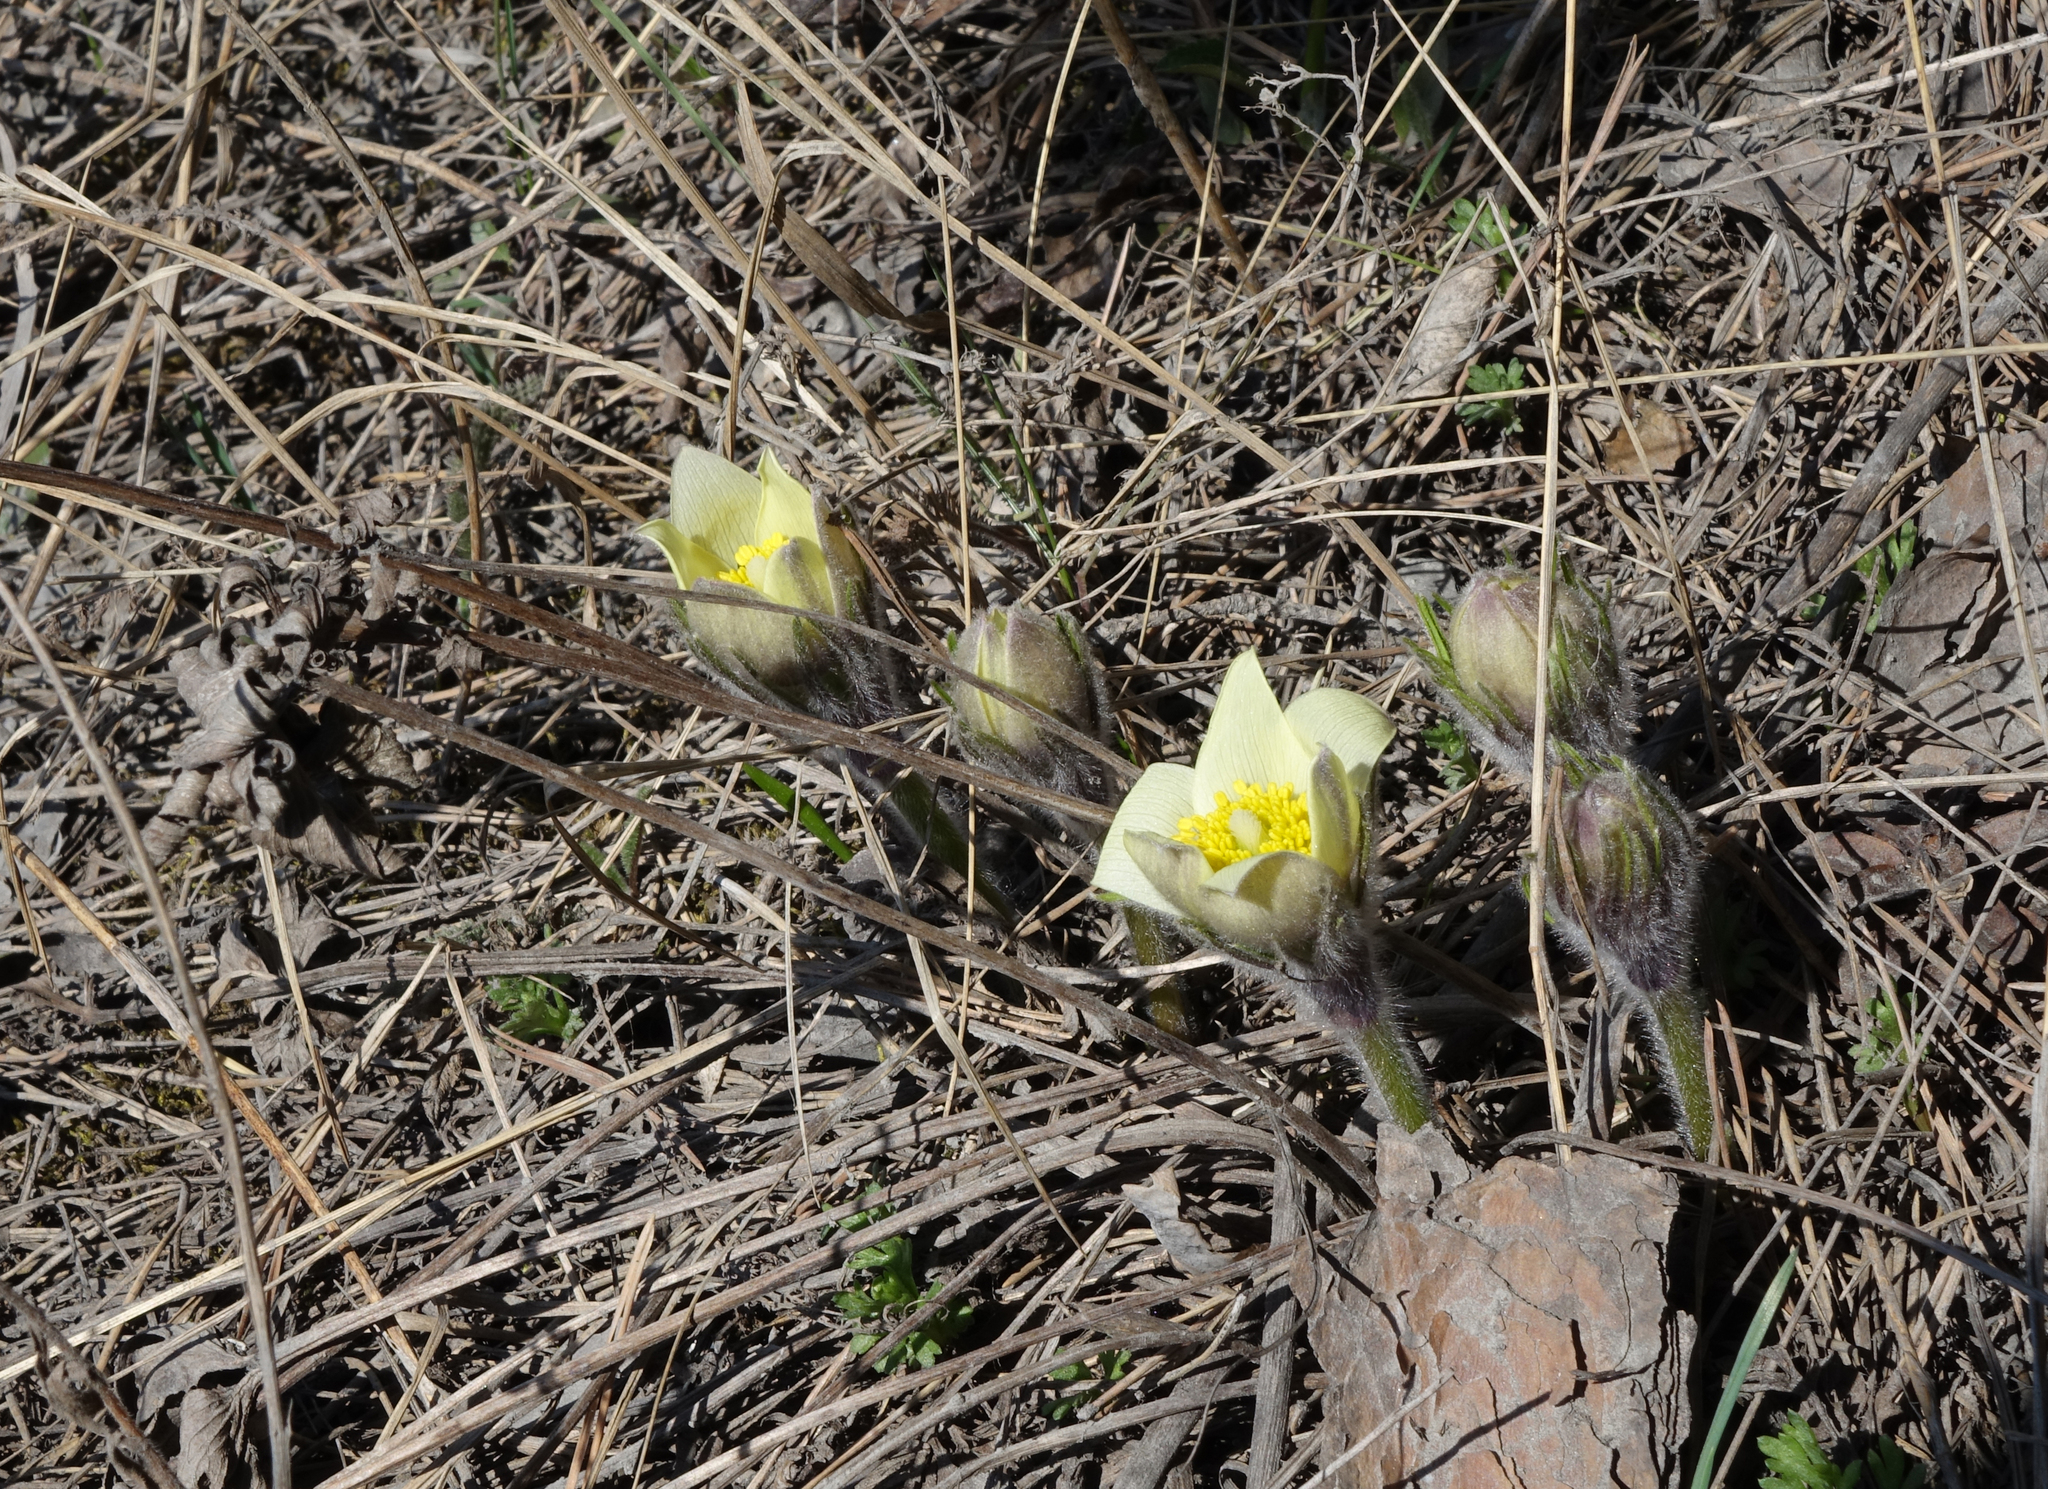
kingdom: Plantae
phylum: Tracheophyta
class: Magnoliopsida
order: Ranunculales
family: Ranunculaceae
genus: Pulsatilla
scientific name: Pulsatilla patens
